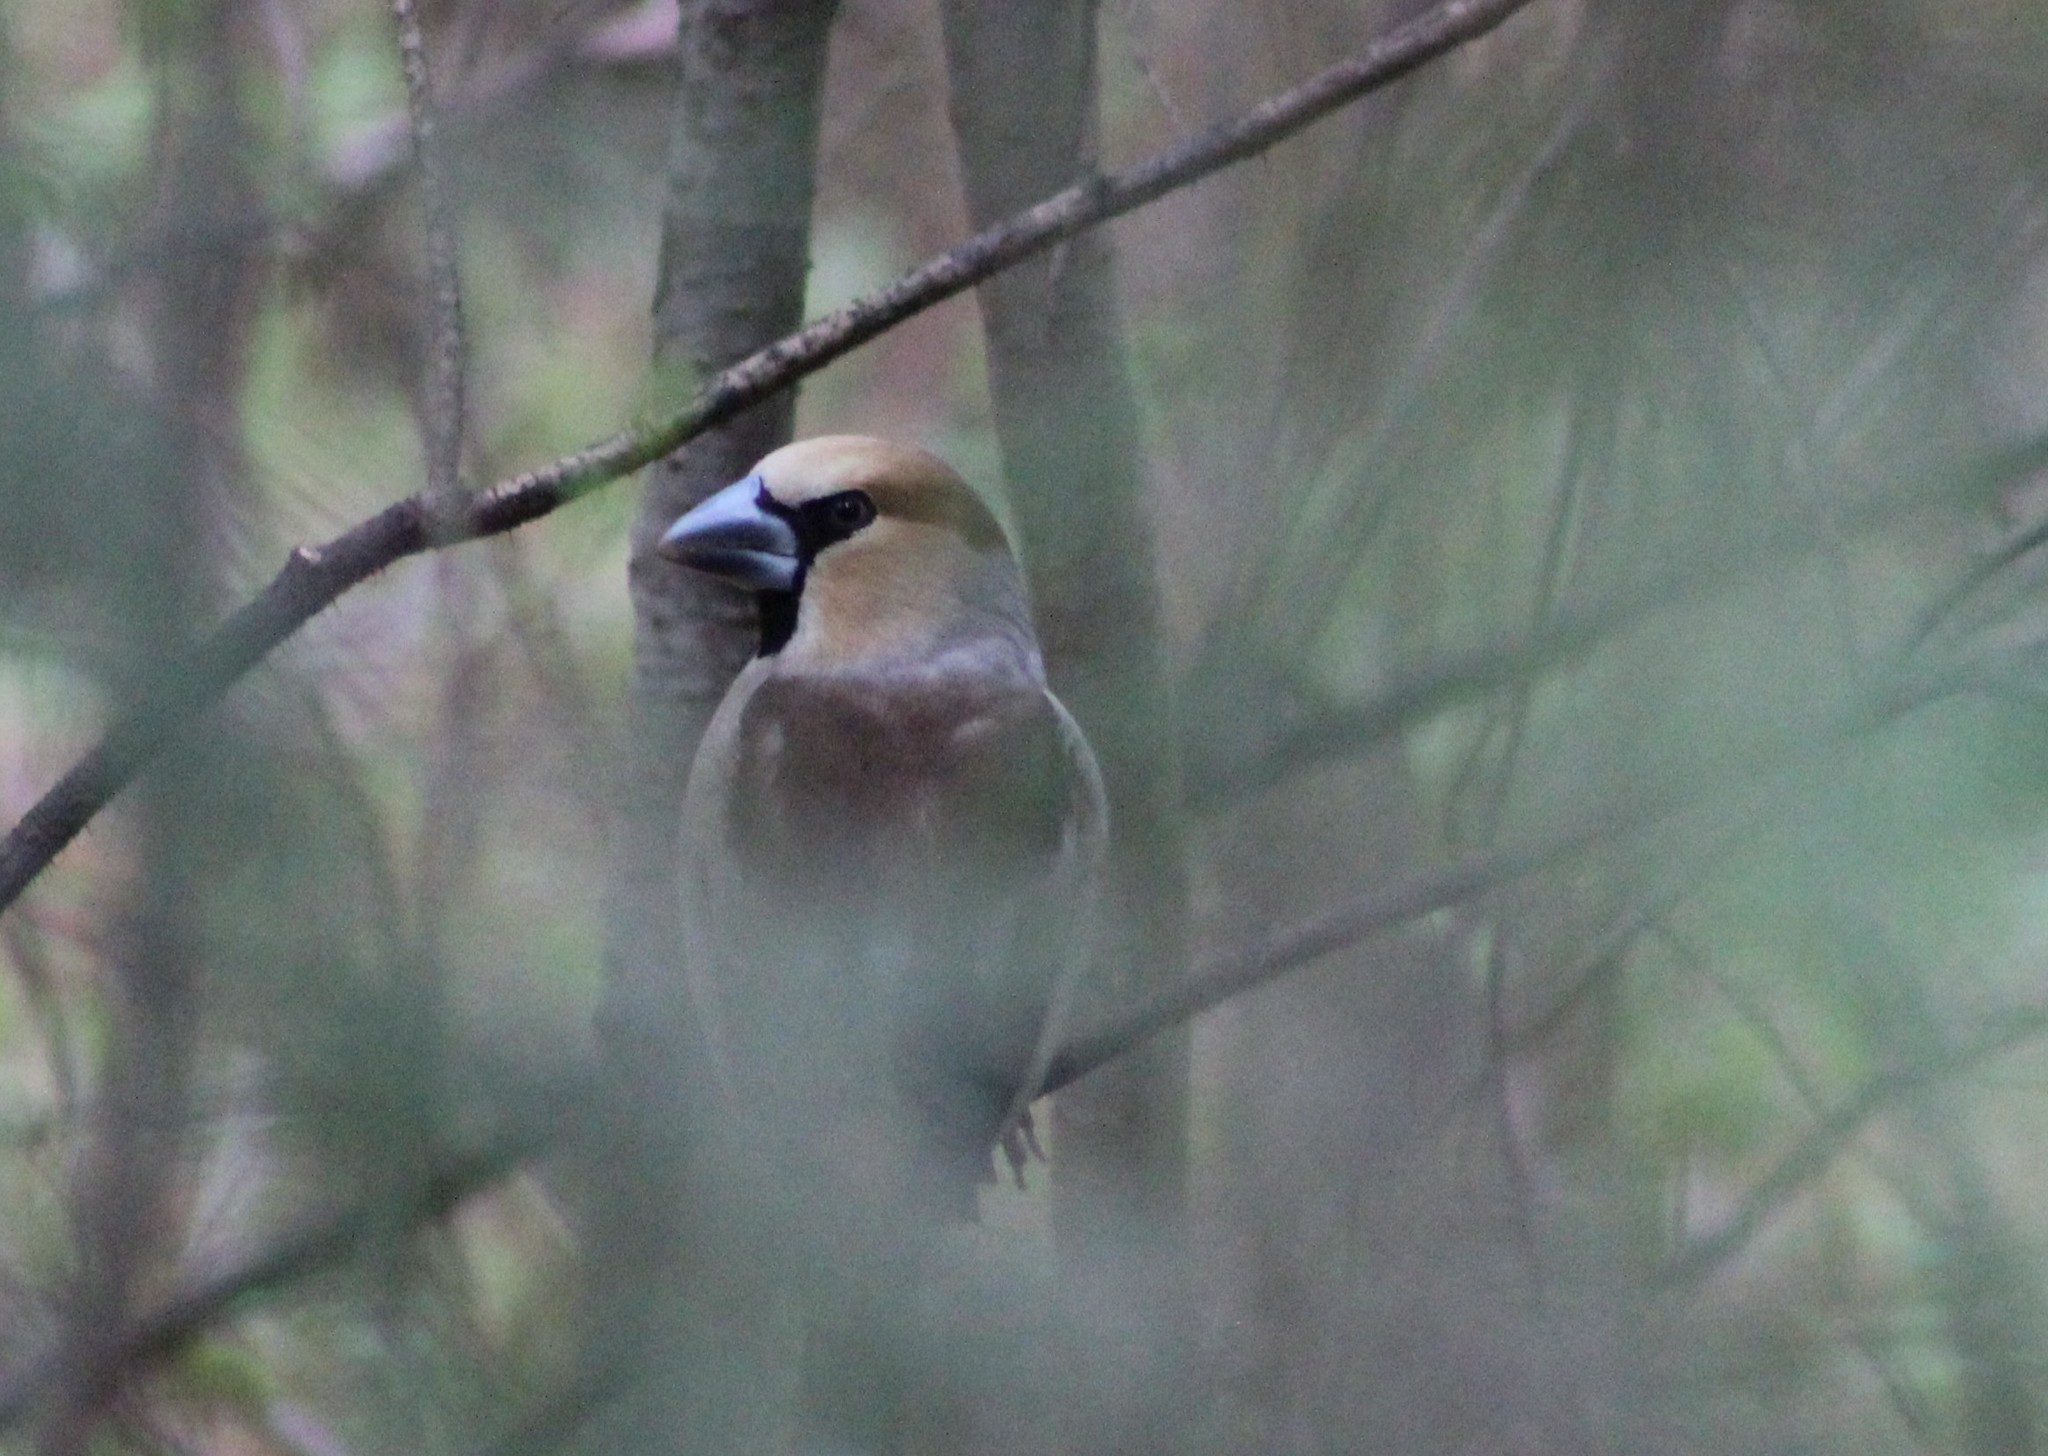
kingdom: Animalia
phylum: Chordata
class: Aves
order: Passeriformes
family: Fringillidae
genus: Coccothraustes
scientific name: Coccothraustes coccothraustes
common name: Hawfinch
